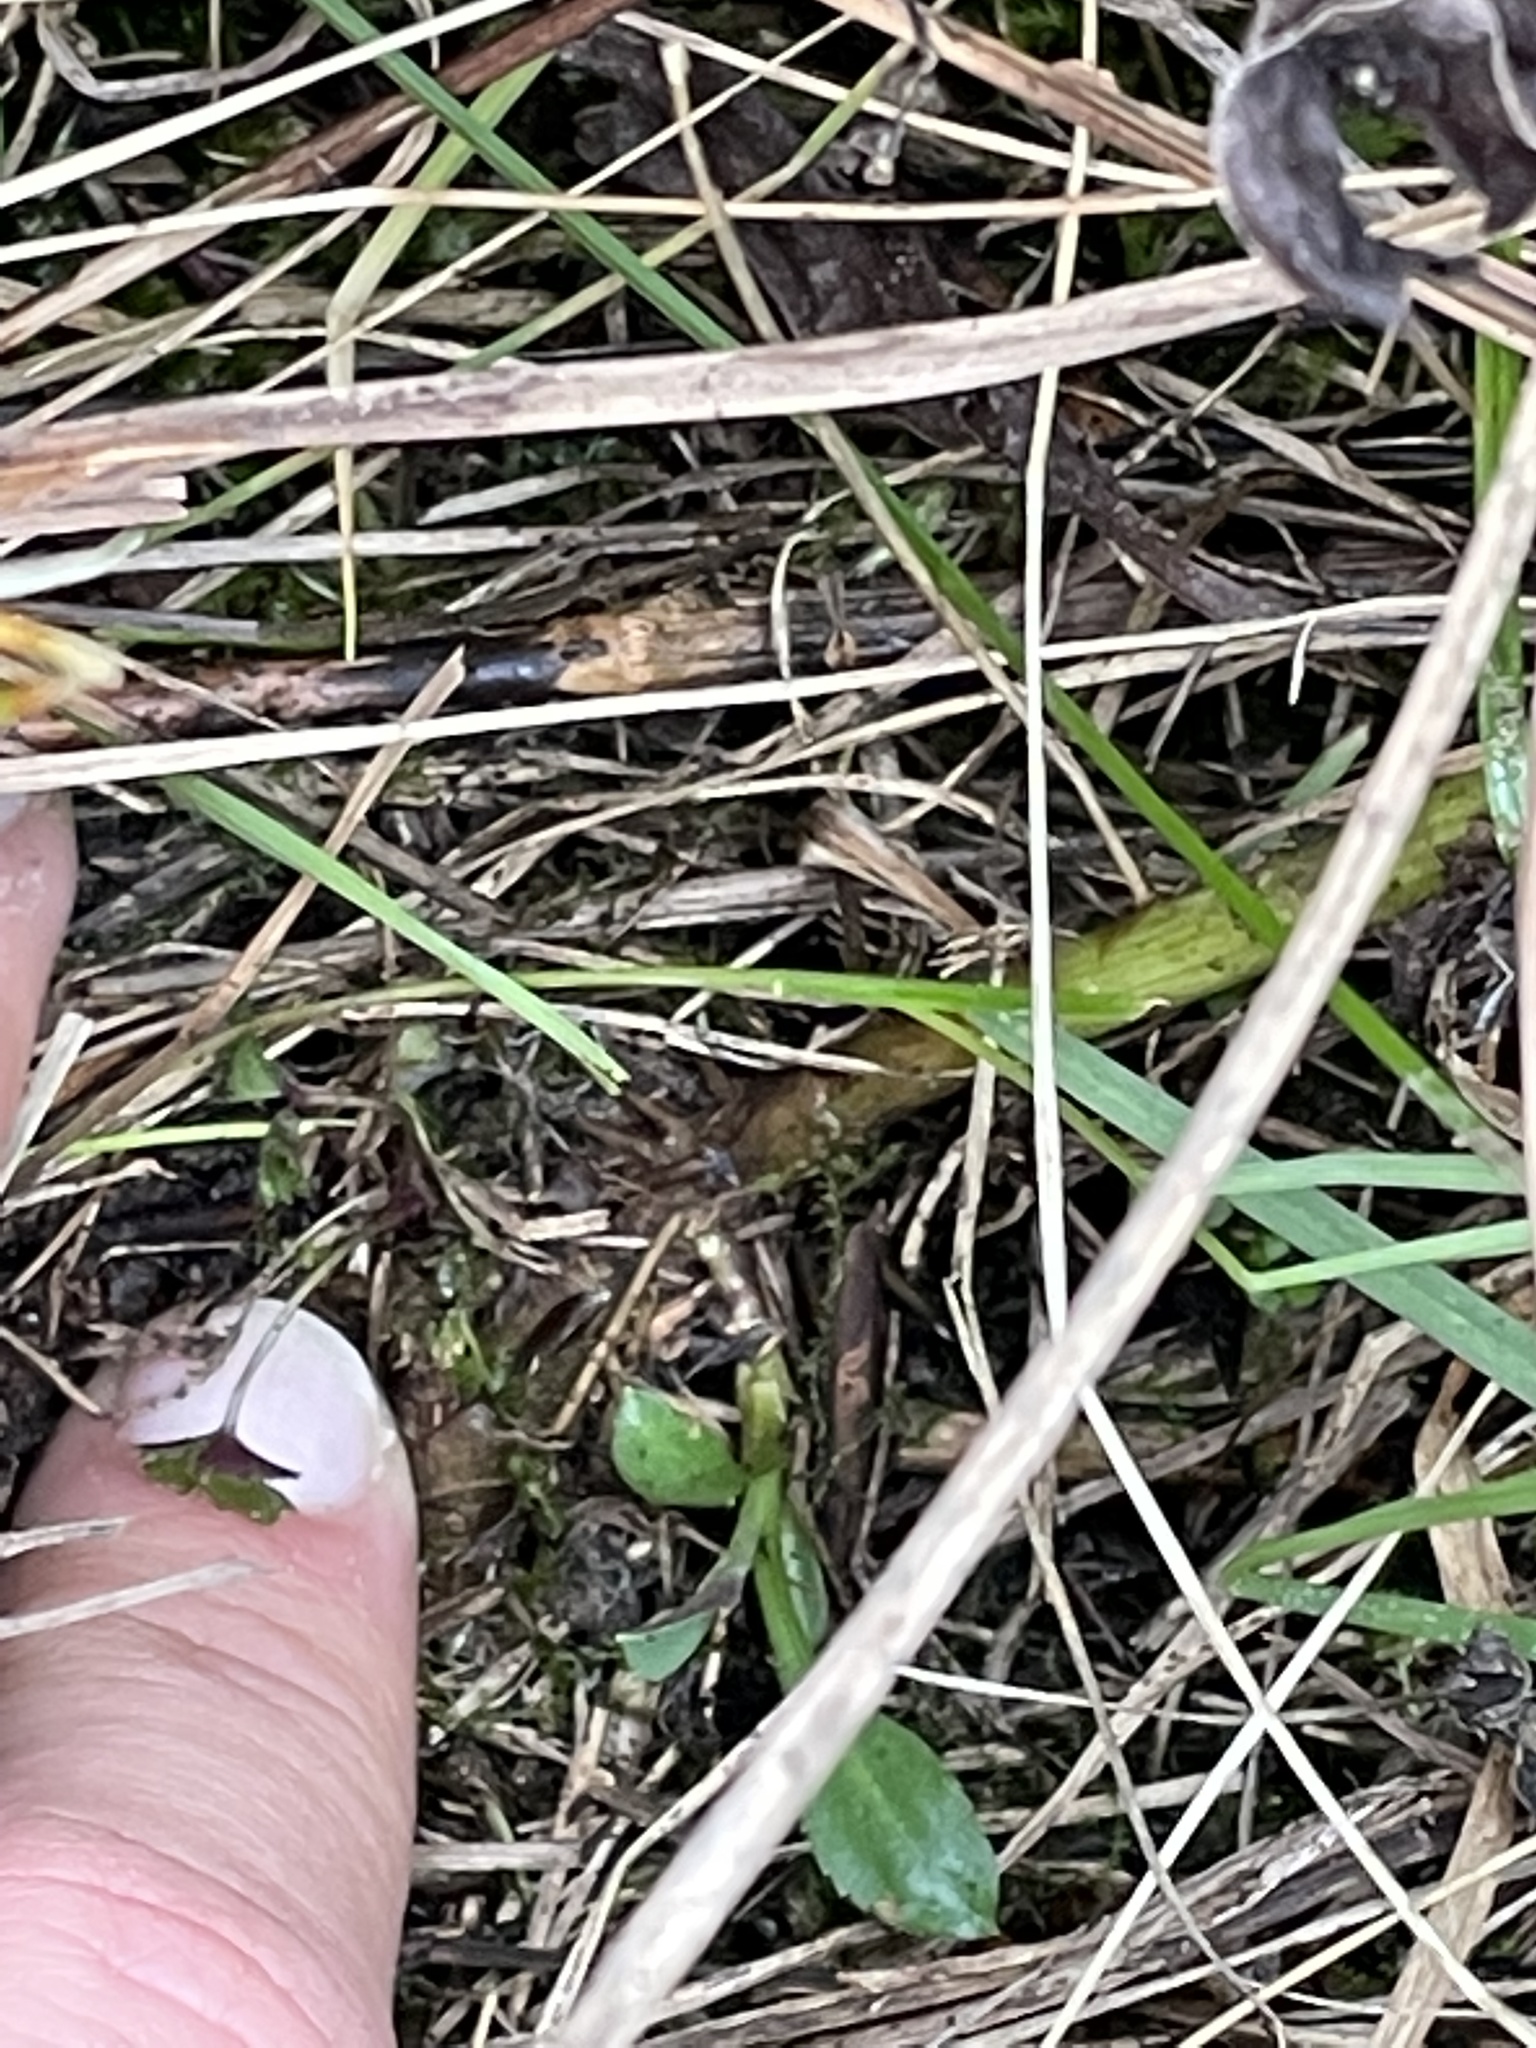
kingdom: Plantae
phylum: Tracheophyta
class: Magnoliopsida
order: Asterales
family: Asteraceae
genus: Symphyotrichum
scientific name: Symphyotrichum laeve
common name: Glaucous aster
